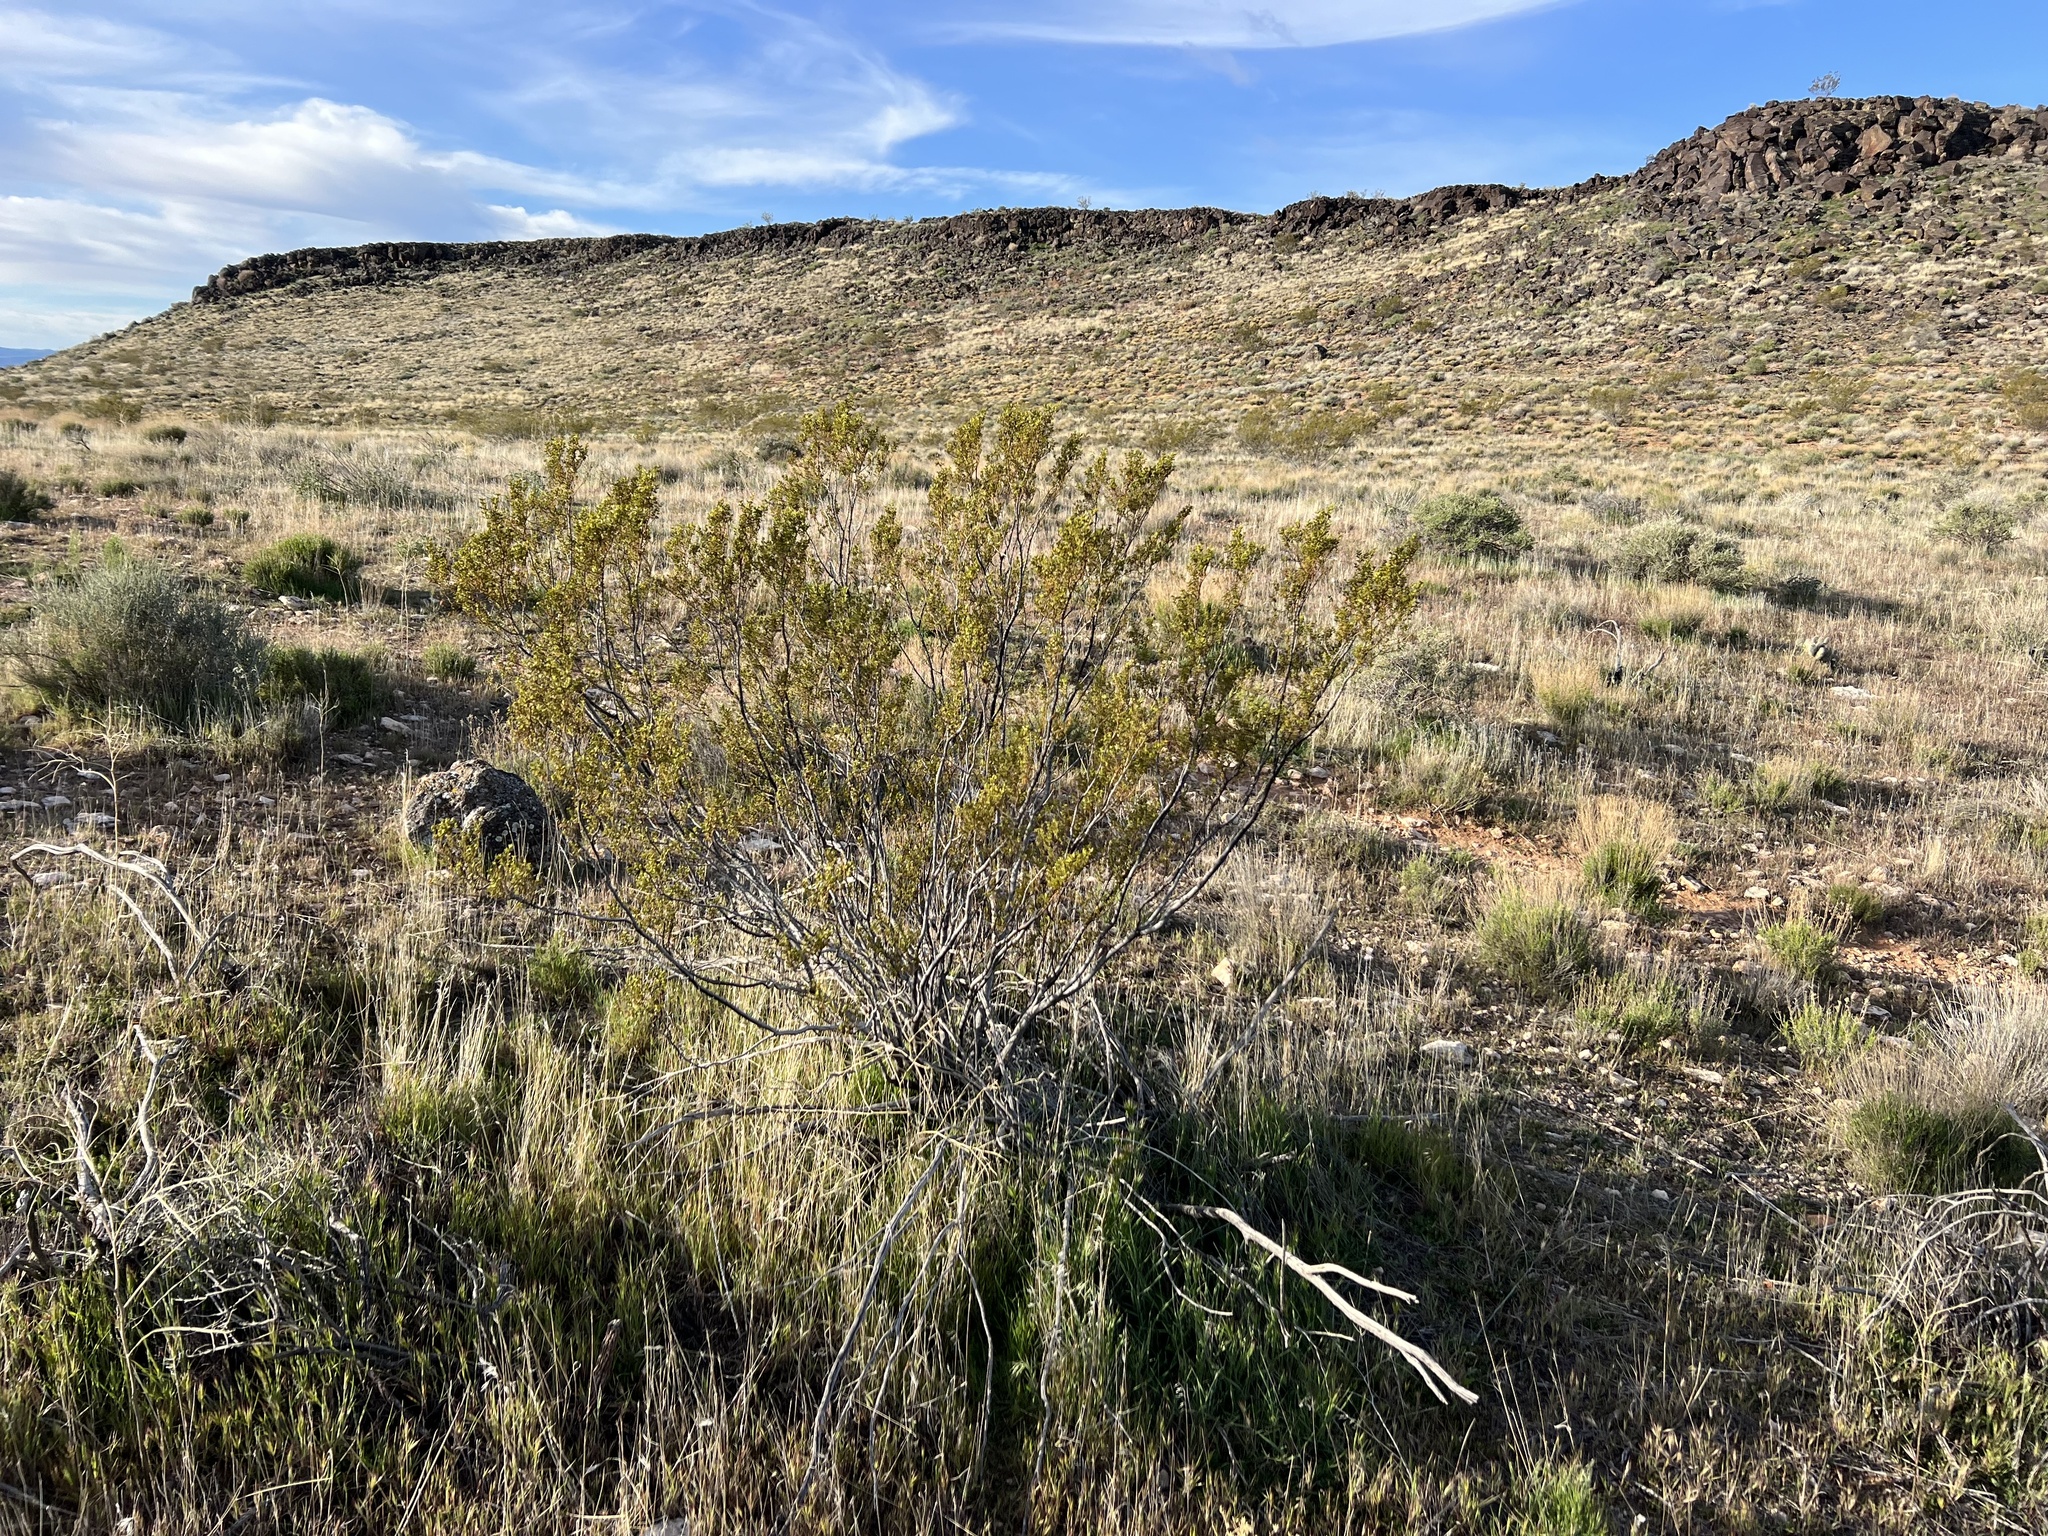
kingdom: Plantae
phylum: Tracheophyta
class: Magnoliopsida
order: Zygophyllales
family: Zygophyllaceae
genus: Larrea
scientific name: Larrea tridentata
